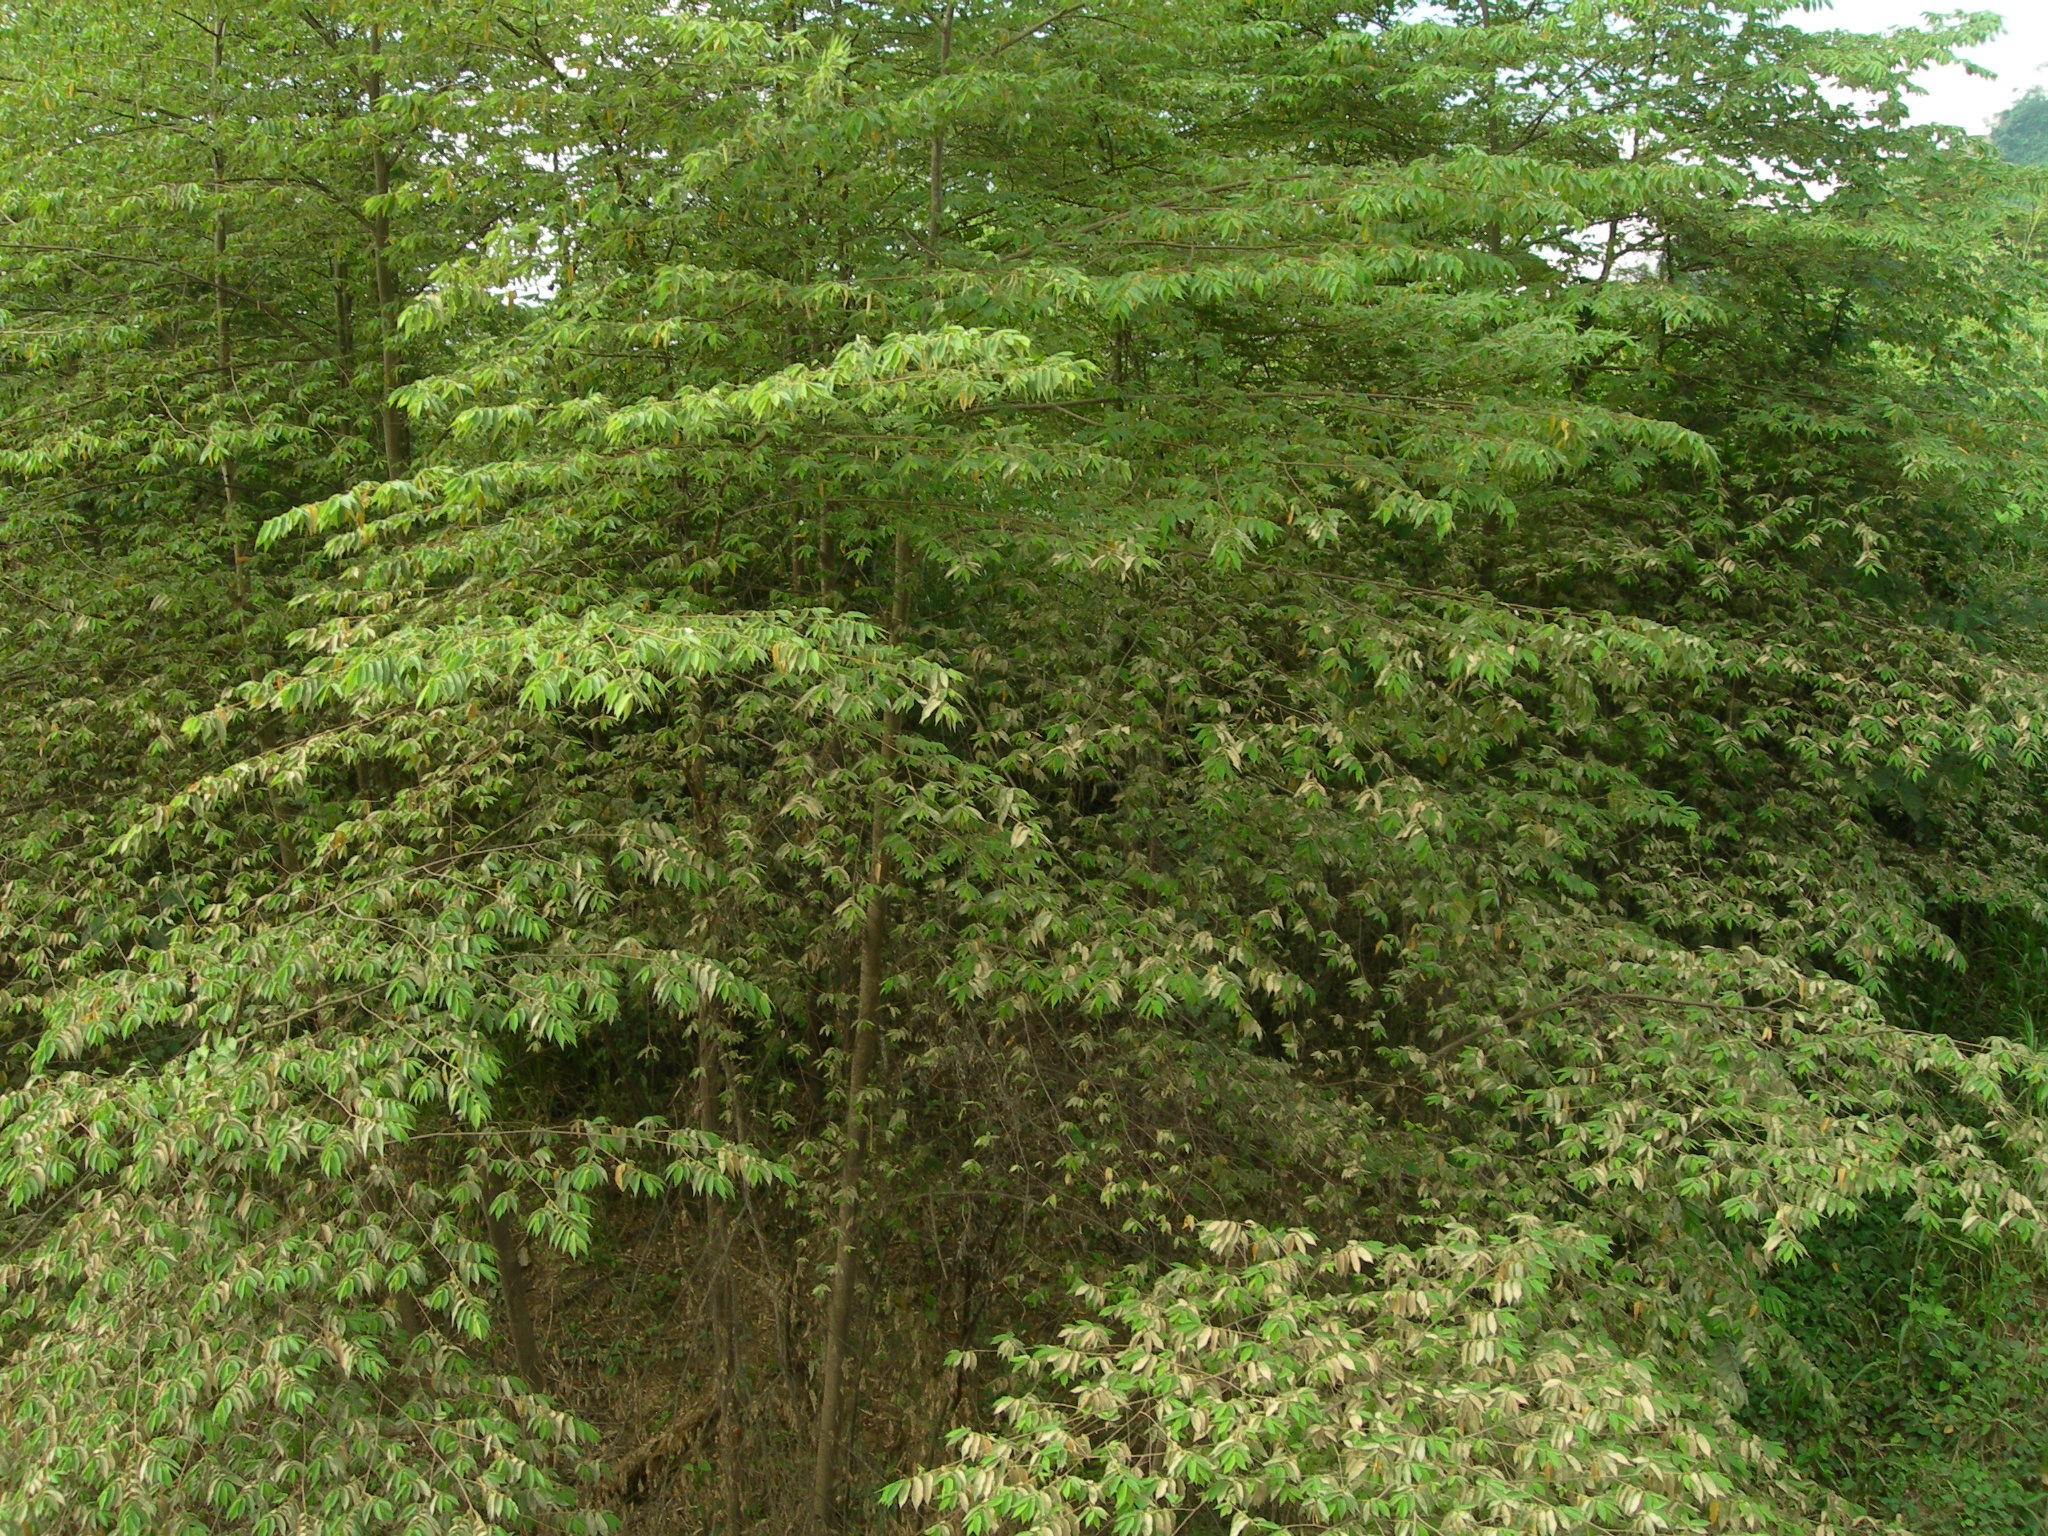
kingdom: Plantae
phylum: Tracheophyta
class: Magnoliopsida
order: Malvales
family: Muntingiaceae
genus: Muntingia
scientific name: Muntingia calabura
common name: Strawberrytree
